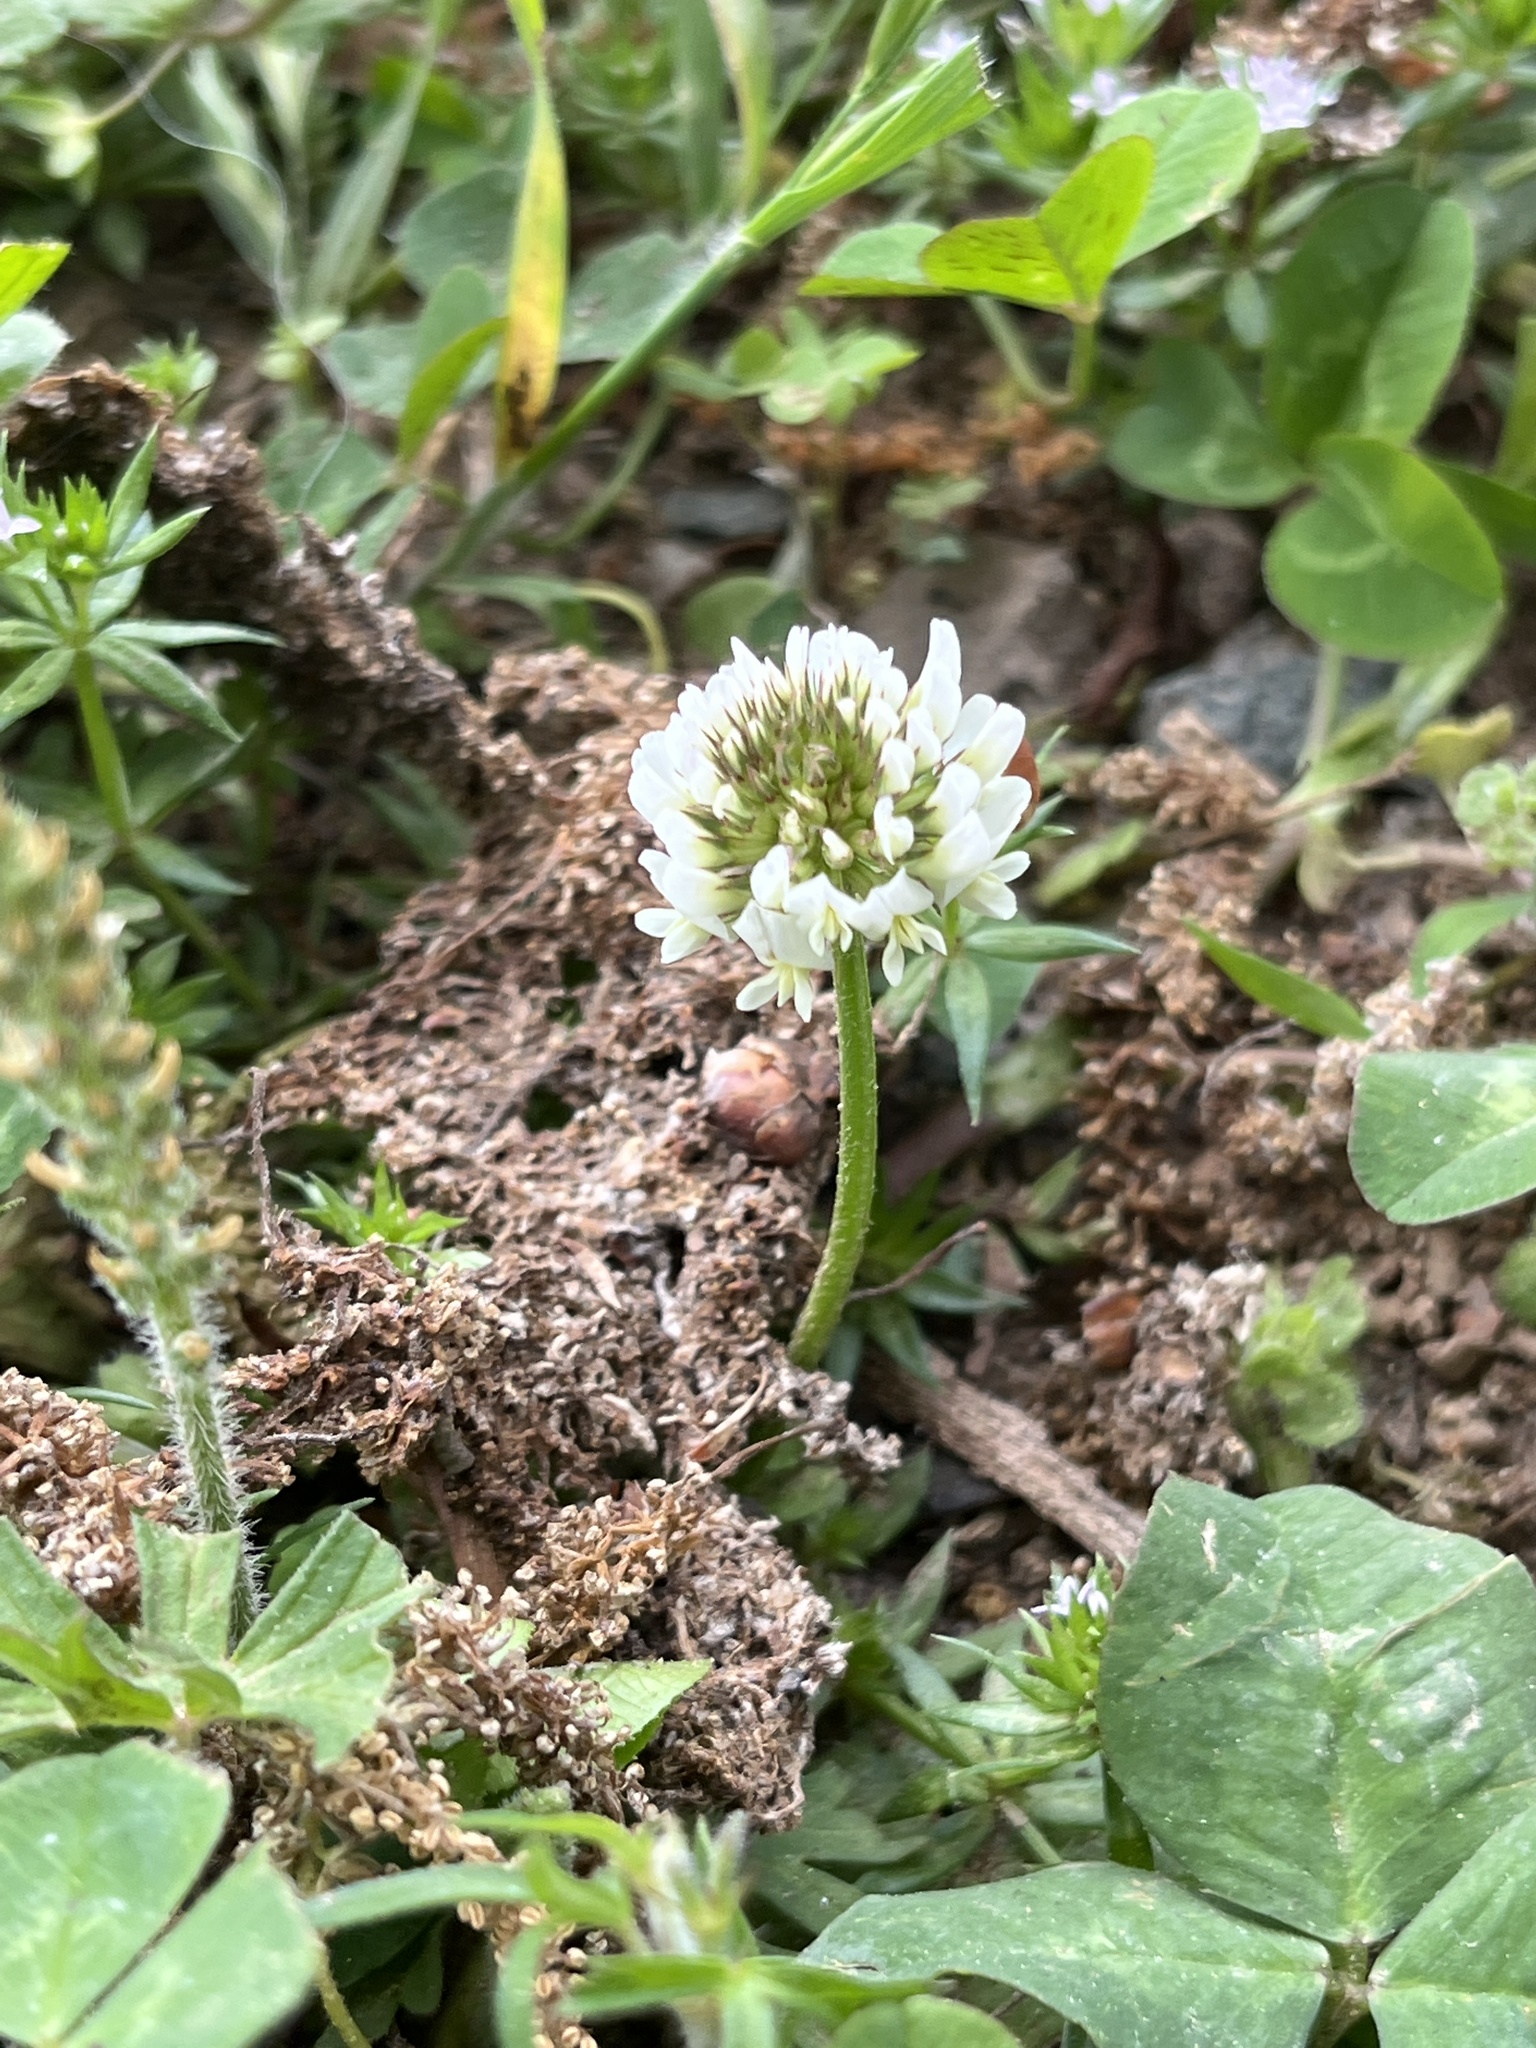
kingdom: Plantae
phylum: Tracheophyta
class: Magnoliopsida
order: Fabales
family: Fabaceae
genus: Trifolium
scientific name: Trifolium repens
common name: White clover
